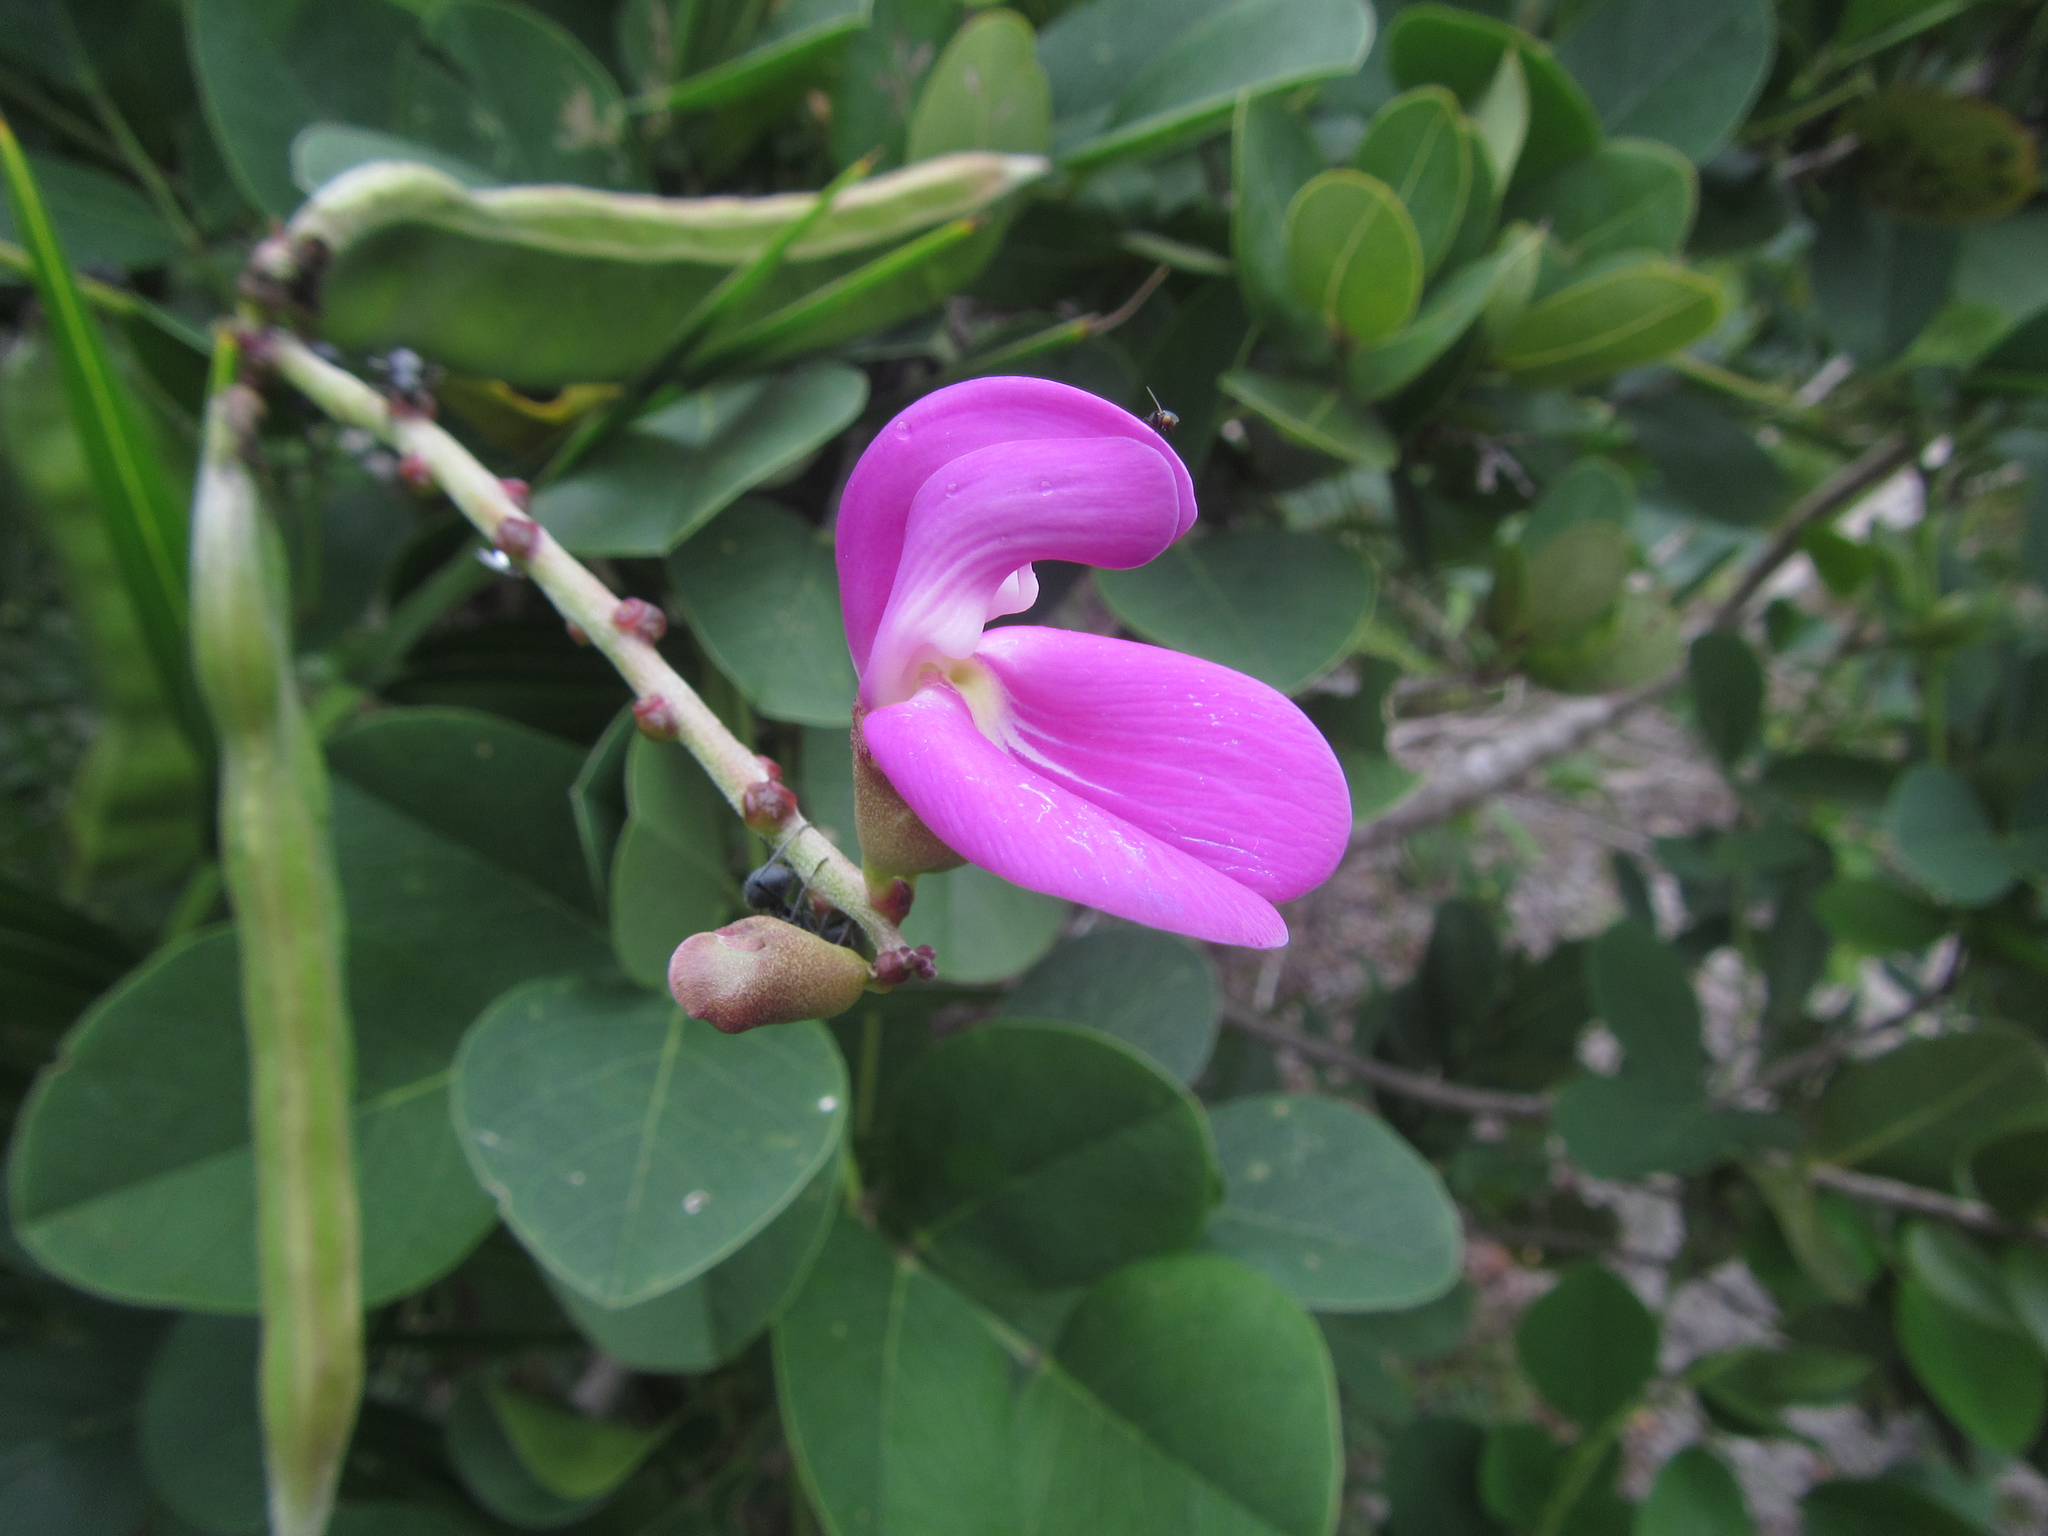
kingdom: Plantae
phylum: Tracheophyta
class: Magnoliopsida
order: Fabales
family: Fabaceae
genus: Canavalia
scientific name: Canavalia rosea
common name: Beach-bean
